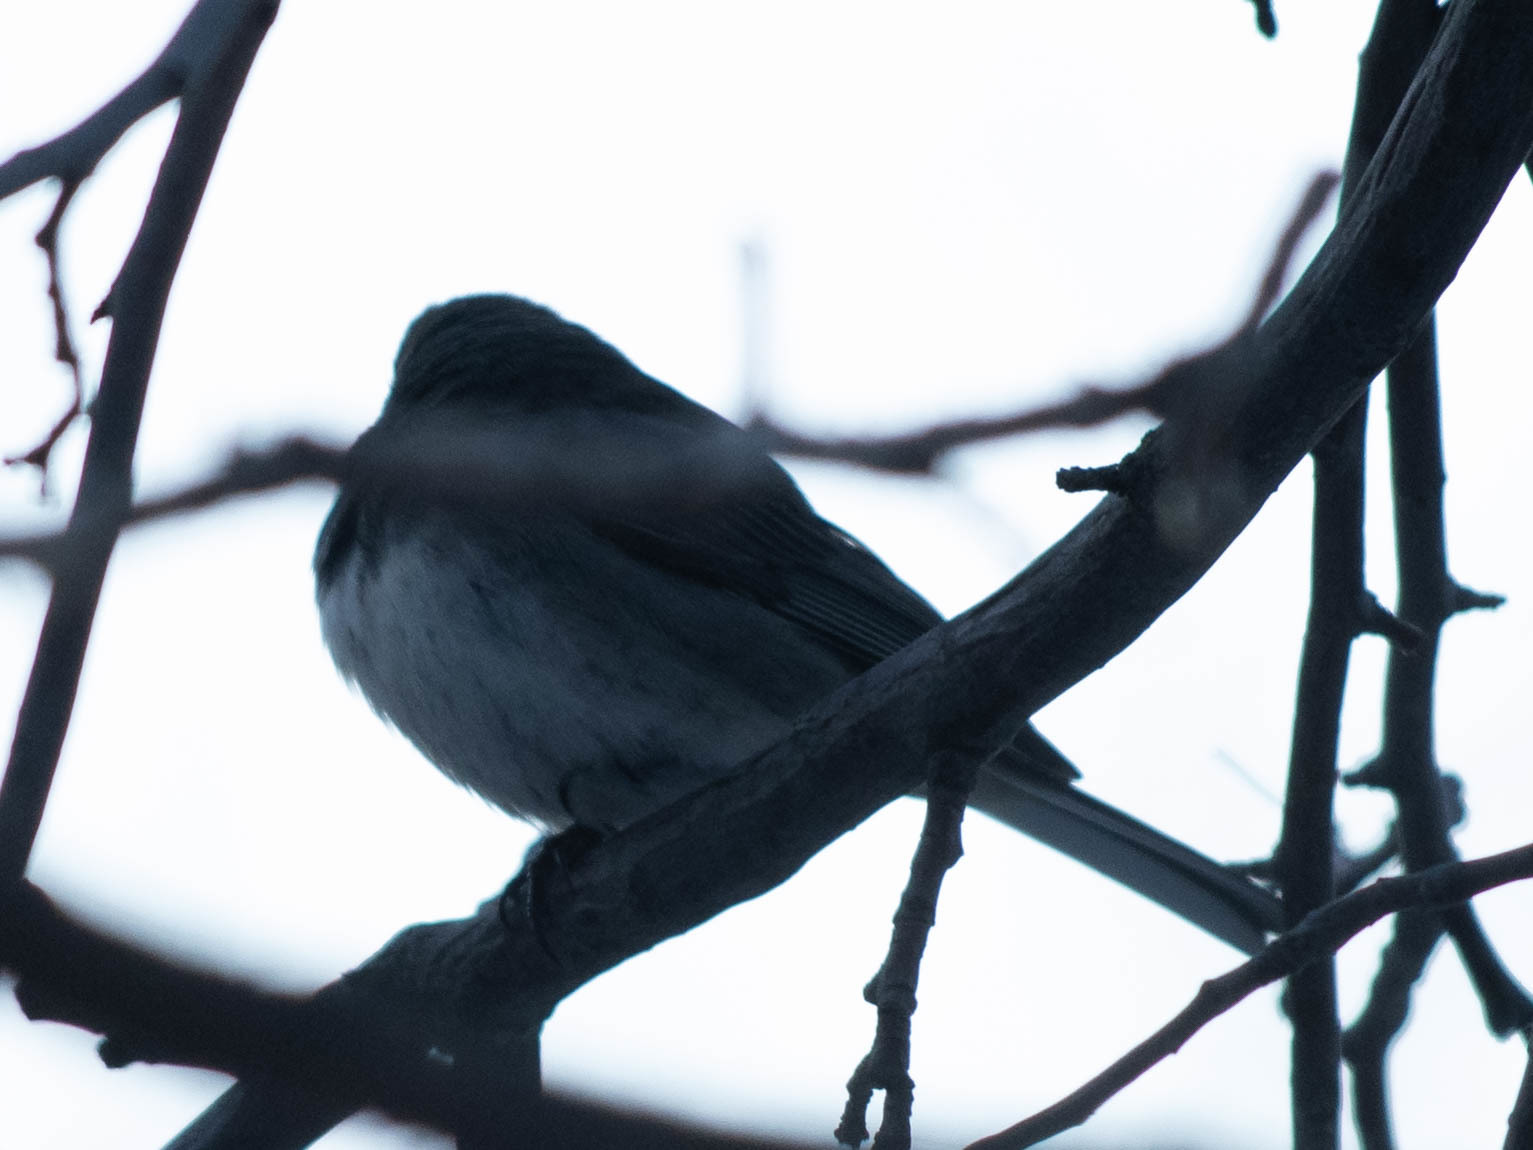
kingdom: Animalia
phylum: Chordata
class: Aves
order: Passeriformes
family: Passerellidae
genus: Junco
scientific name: Junco hyemalis
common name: Dark-eyed junco
